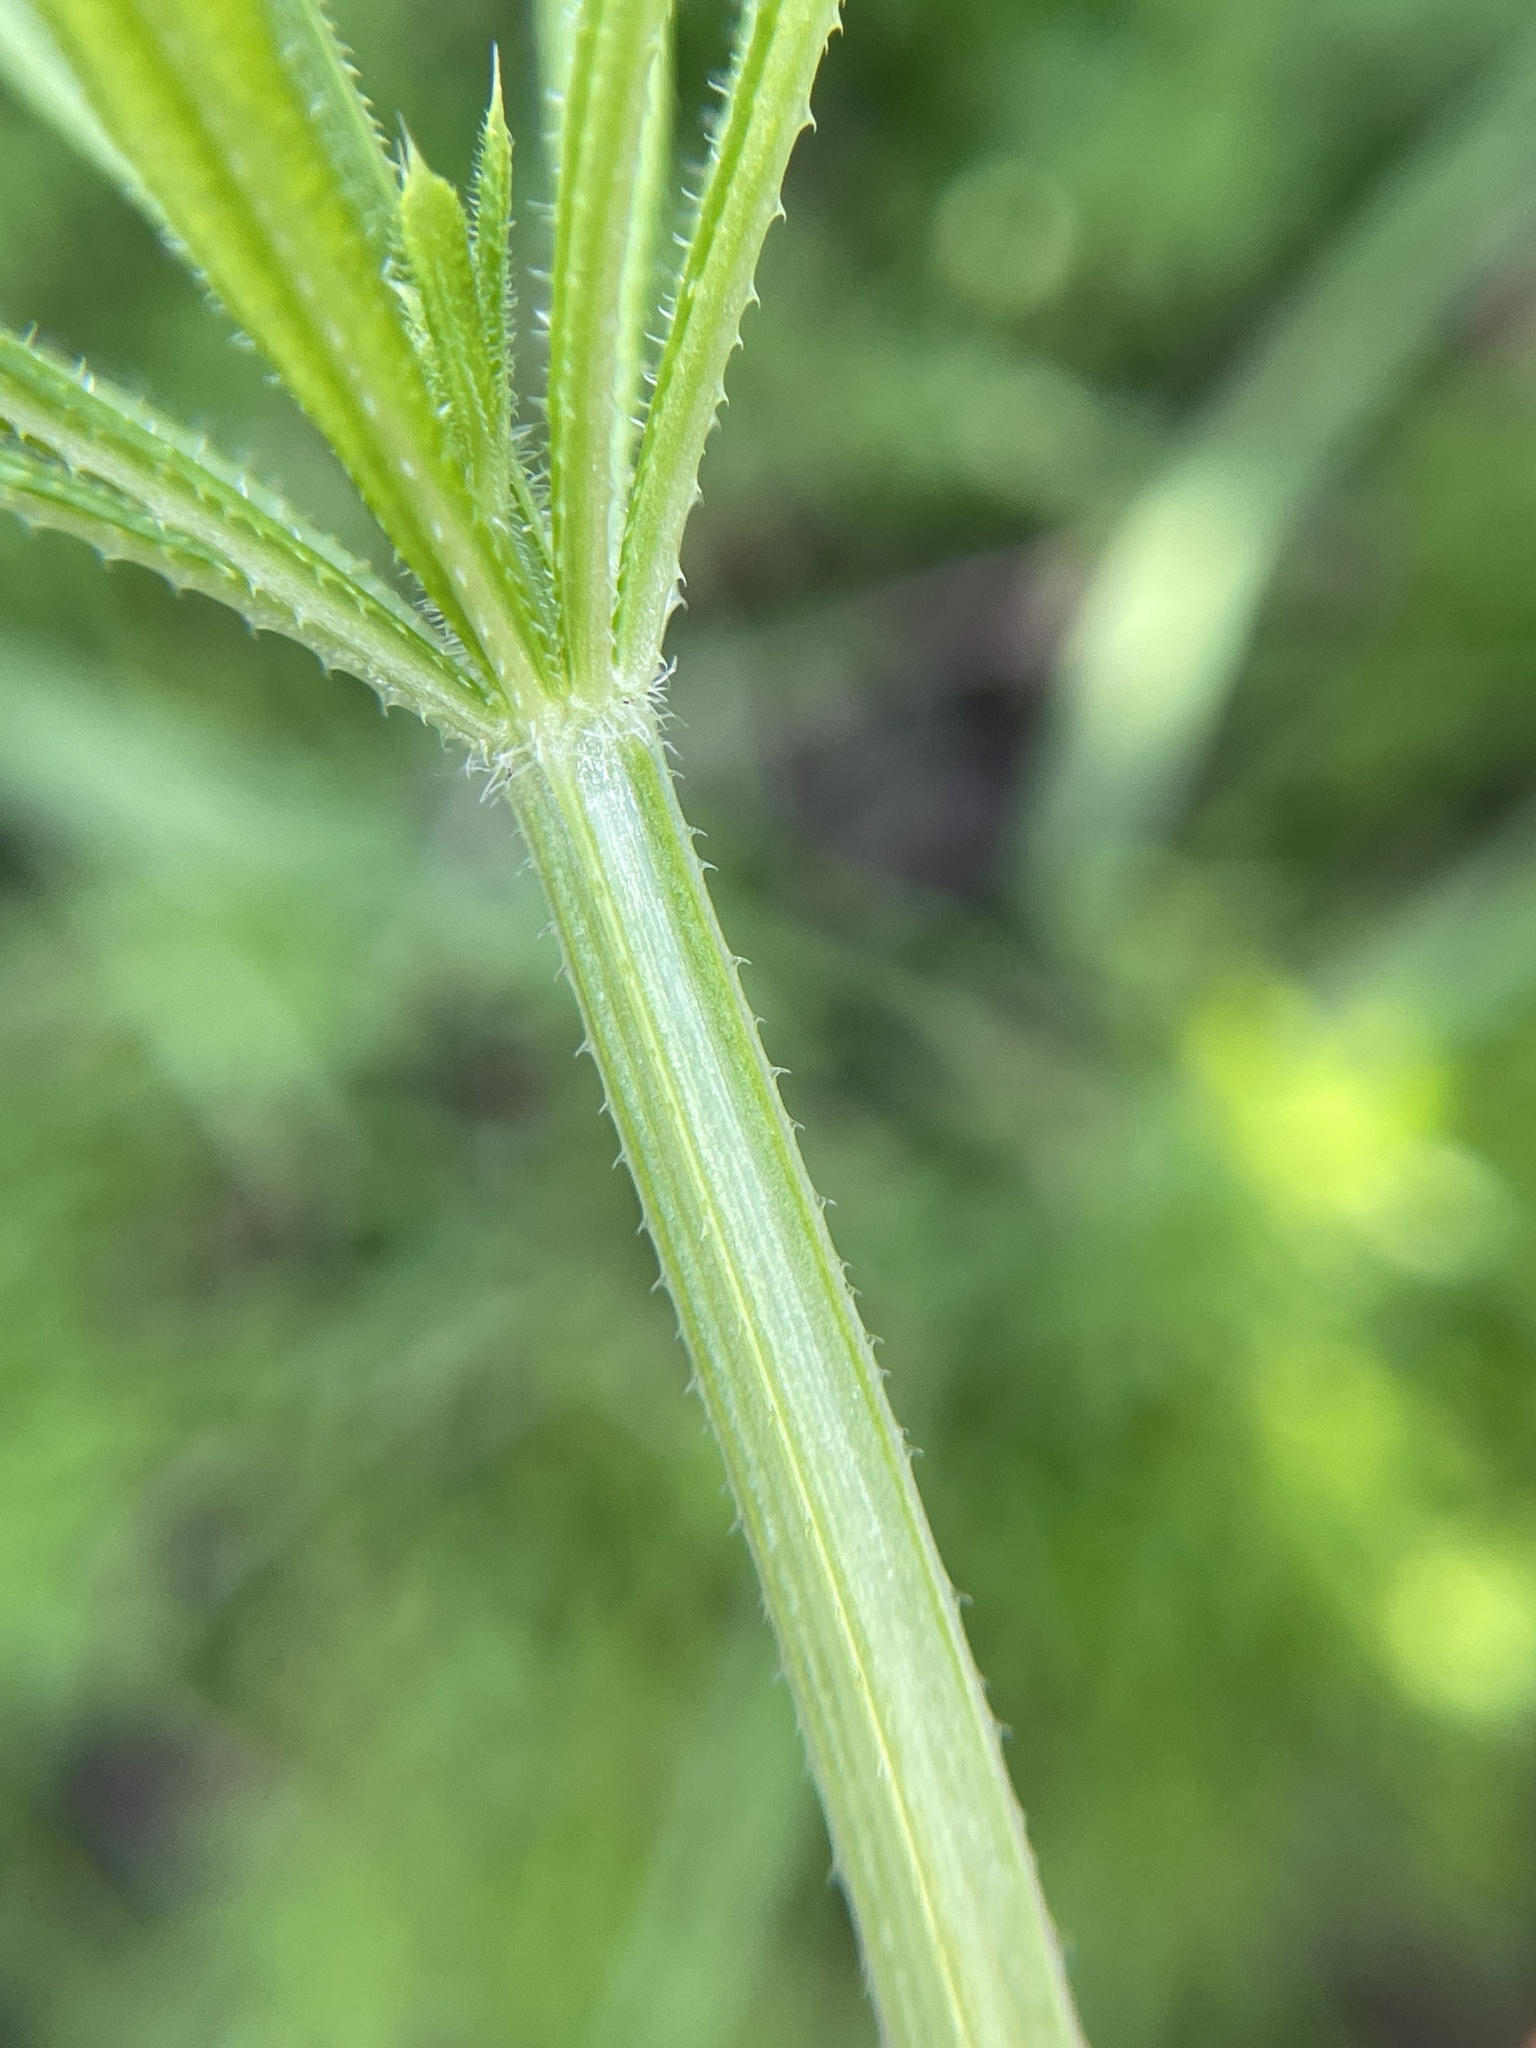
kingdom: Plantae
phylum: Tracheophyta
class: Magnoliopsida
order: Gentianales
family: Rubiaceae
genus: Galium
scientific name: Galium aparine
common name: Cleavers
